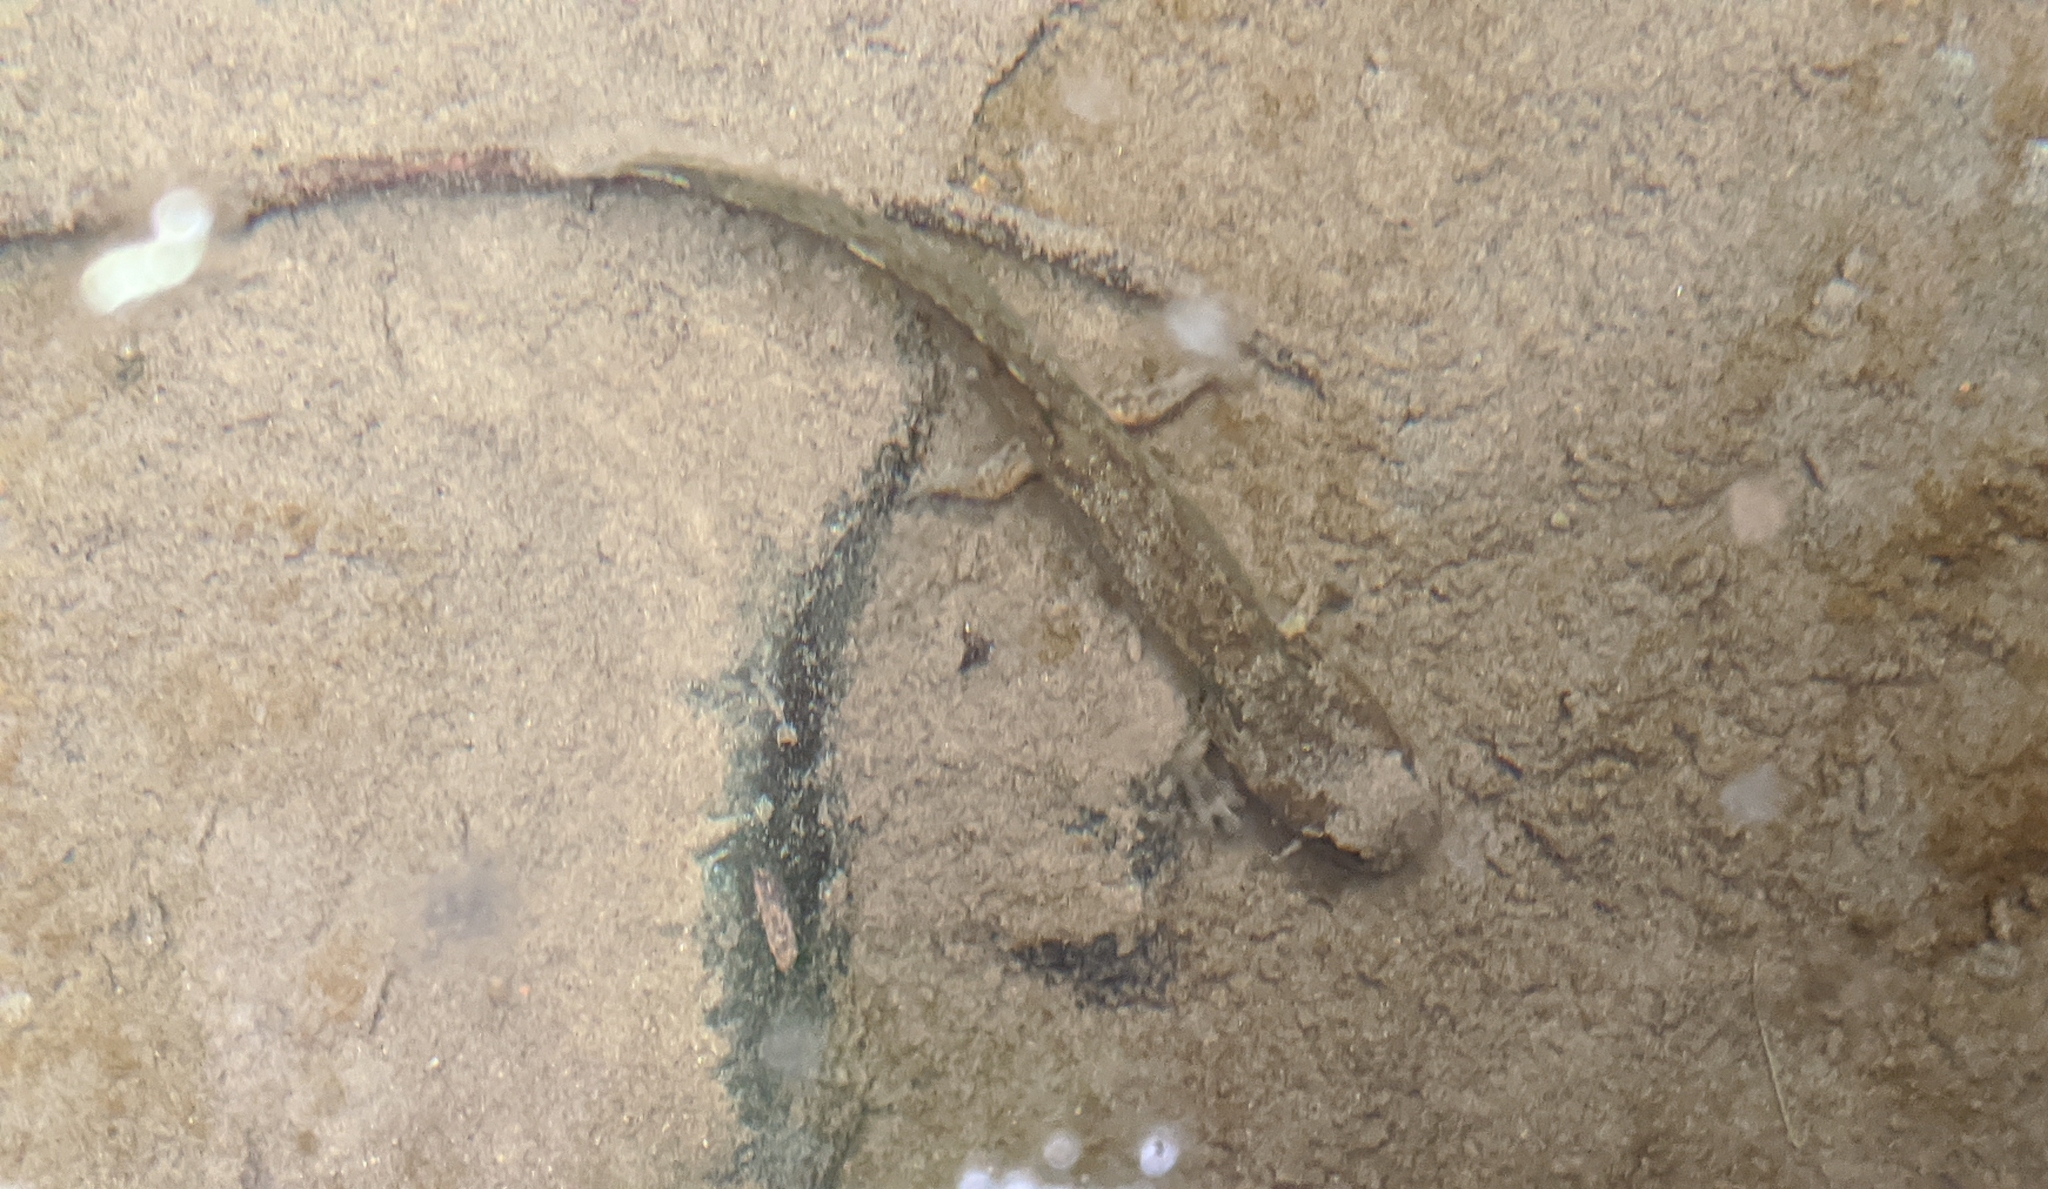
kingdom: Animalia
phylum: Chordata
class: Amphibia
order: Caudata
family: Ambystomatidae
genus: Dicamptodon
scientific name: Dicamptodon ensatus
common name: California giant salamander
